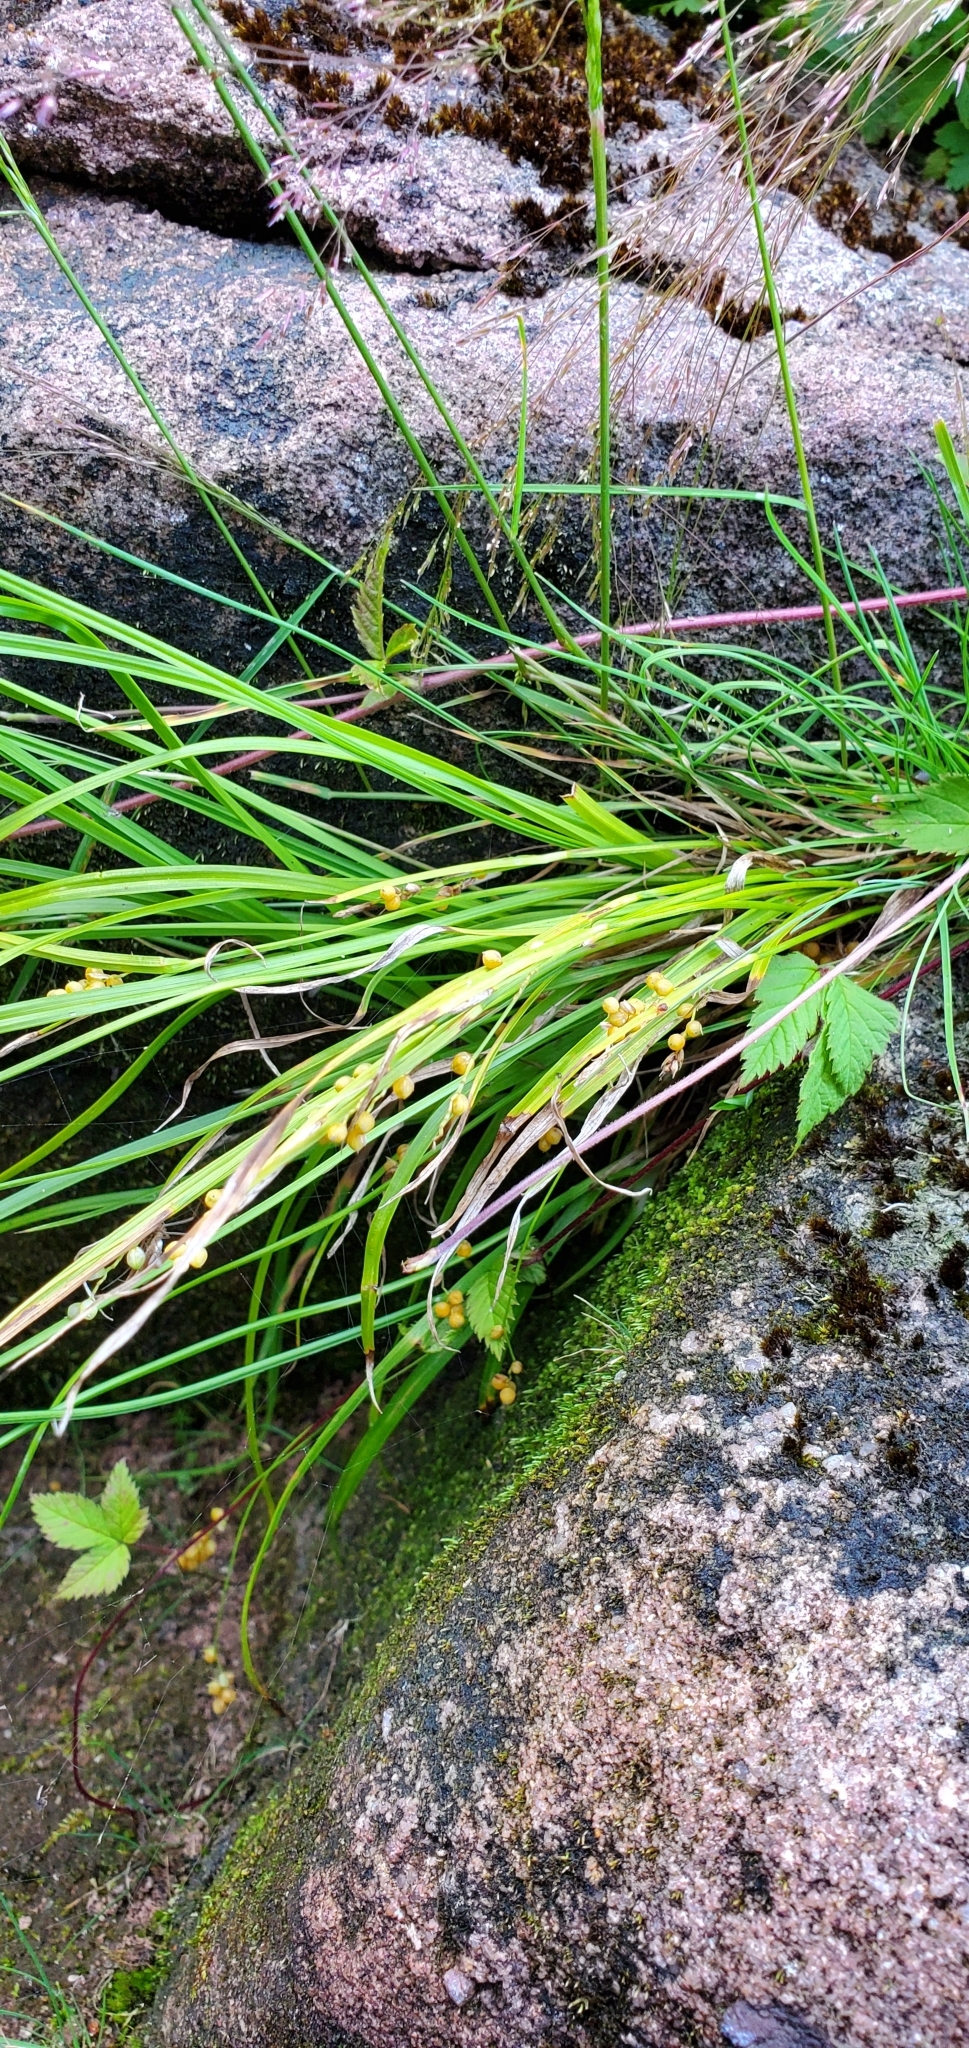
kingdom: Plantae
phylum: Tracheophyta
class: Liliopsida
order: Poales
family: Cyperaceae
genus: Carex
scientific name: Carex aurea
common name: Golden sedge
